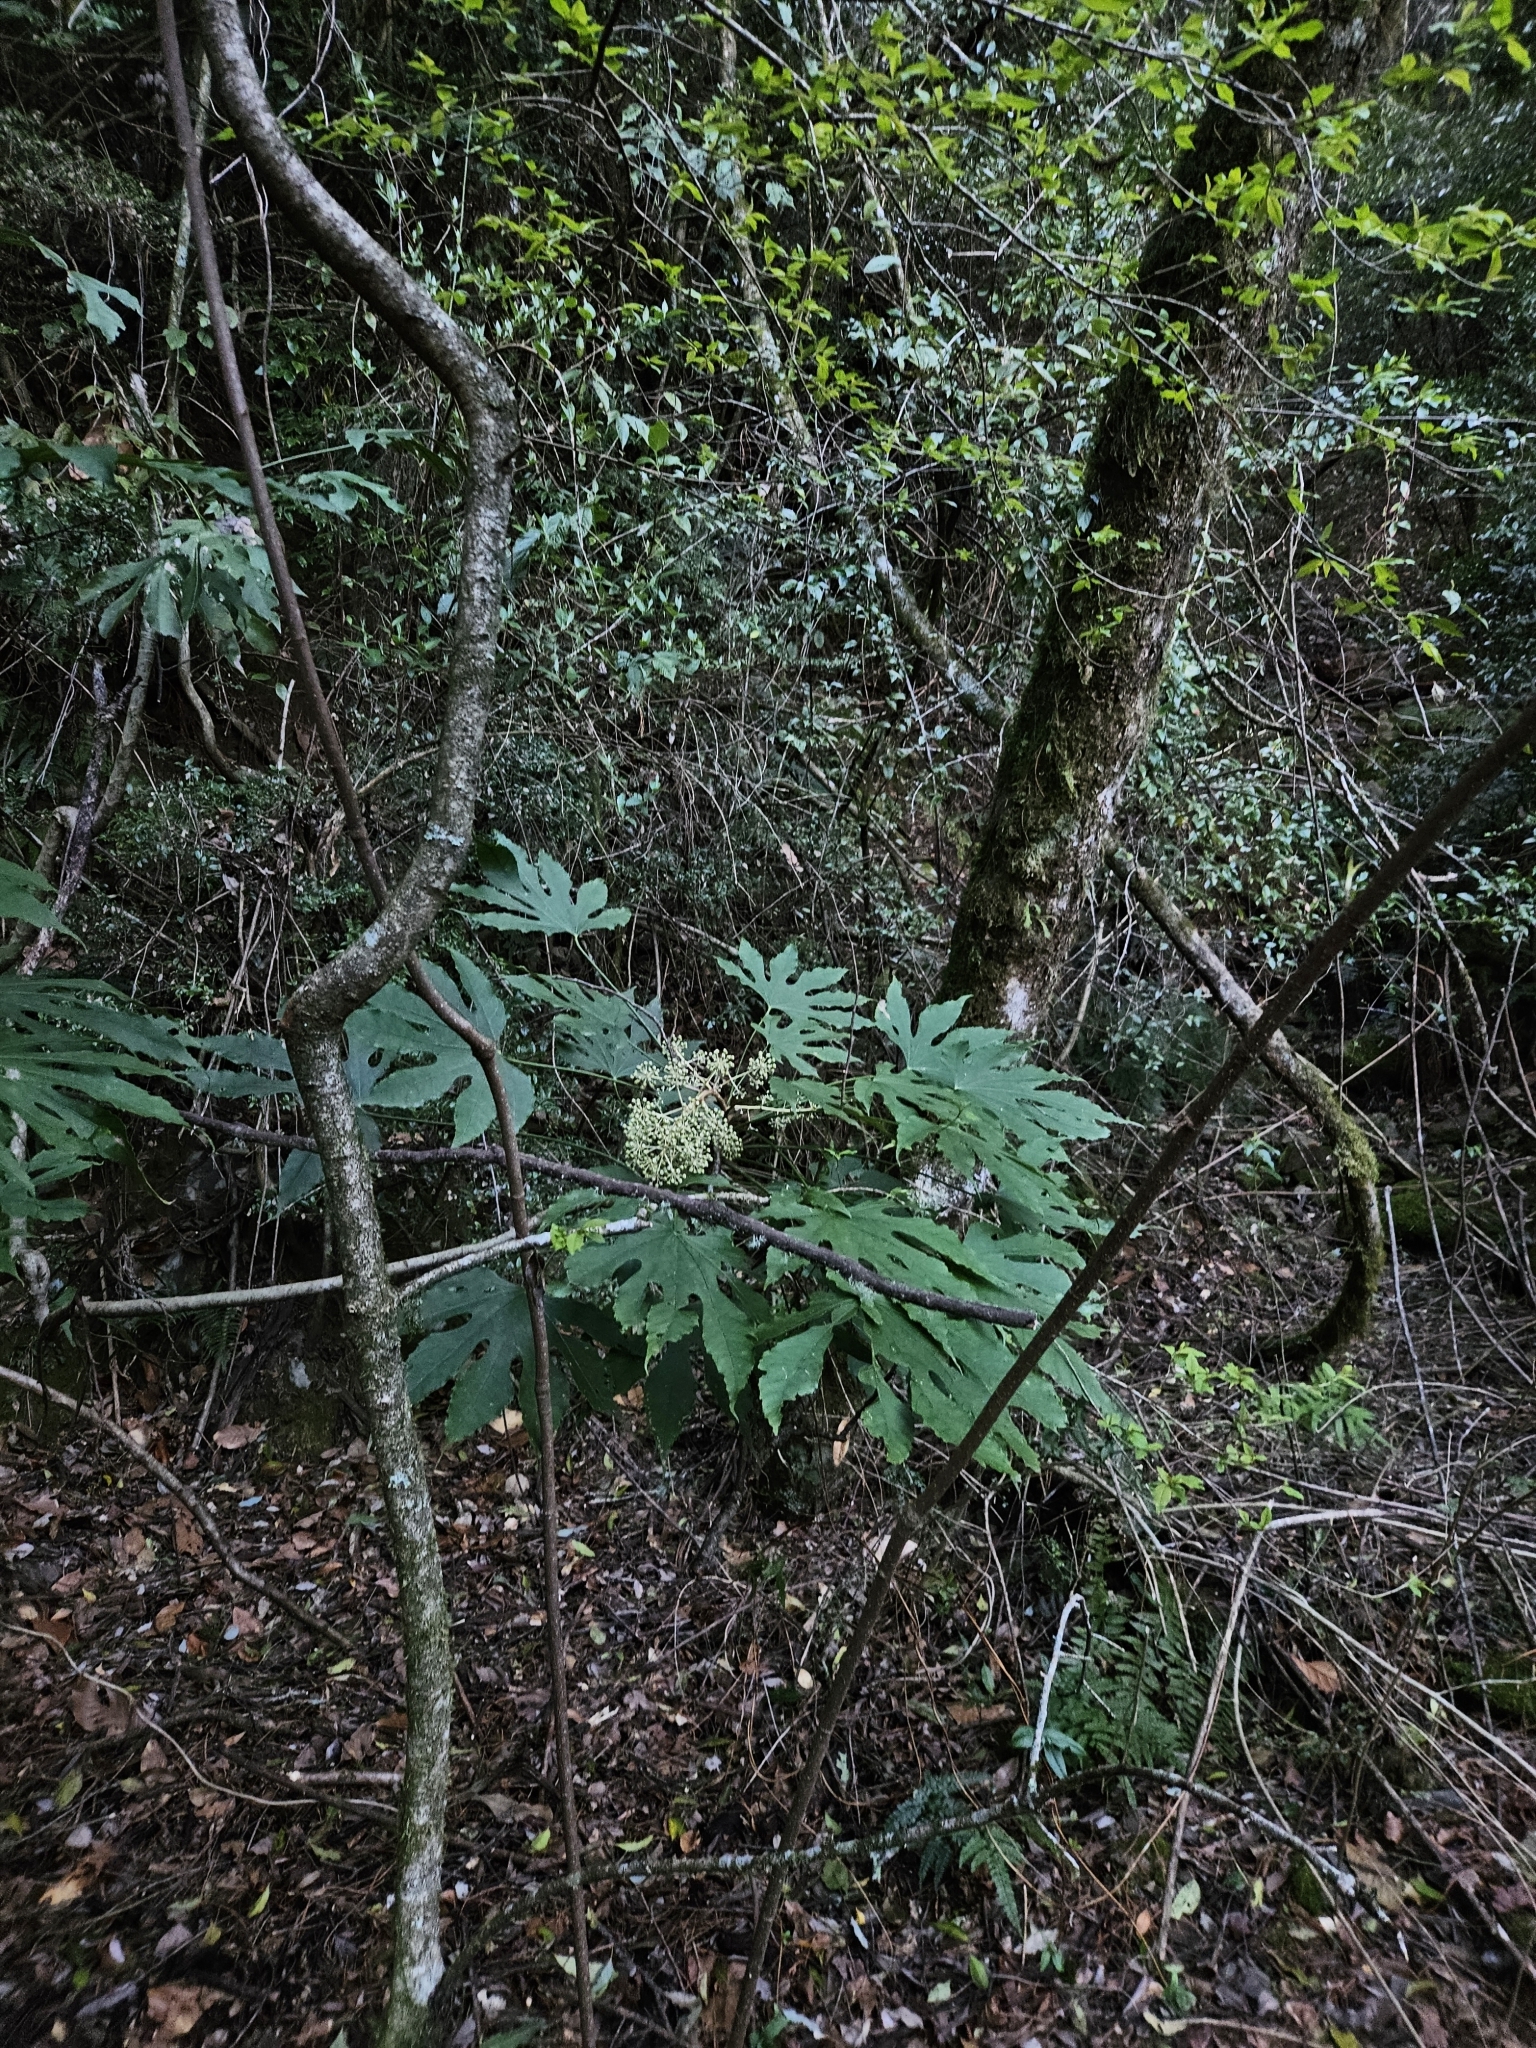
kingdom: Plantae
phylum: Tracheophyta
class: Magnoliopsida
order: Apiales
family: Araliaceae
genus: Fatsia
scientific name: Fatsia polycarpa
